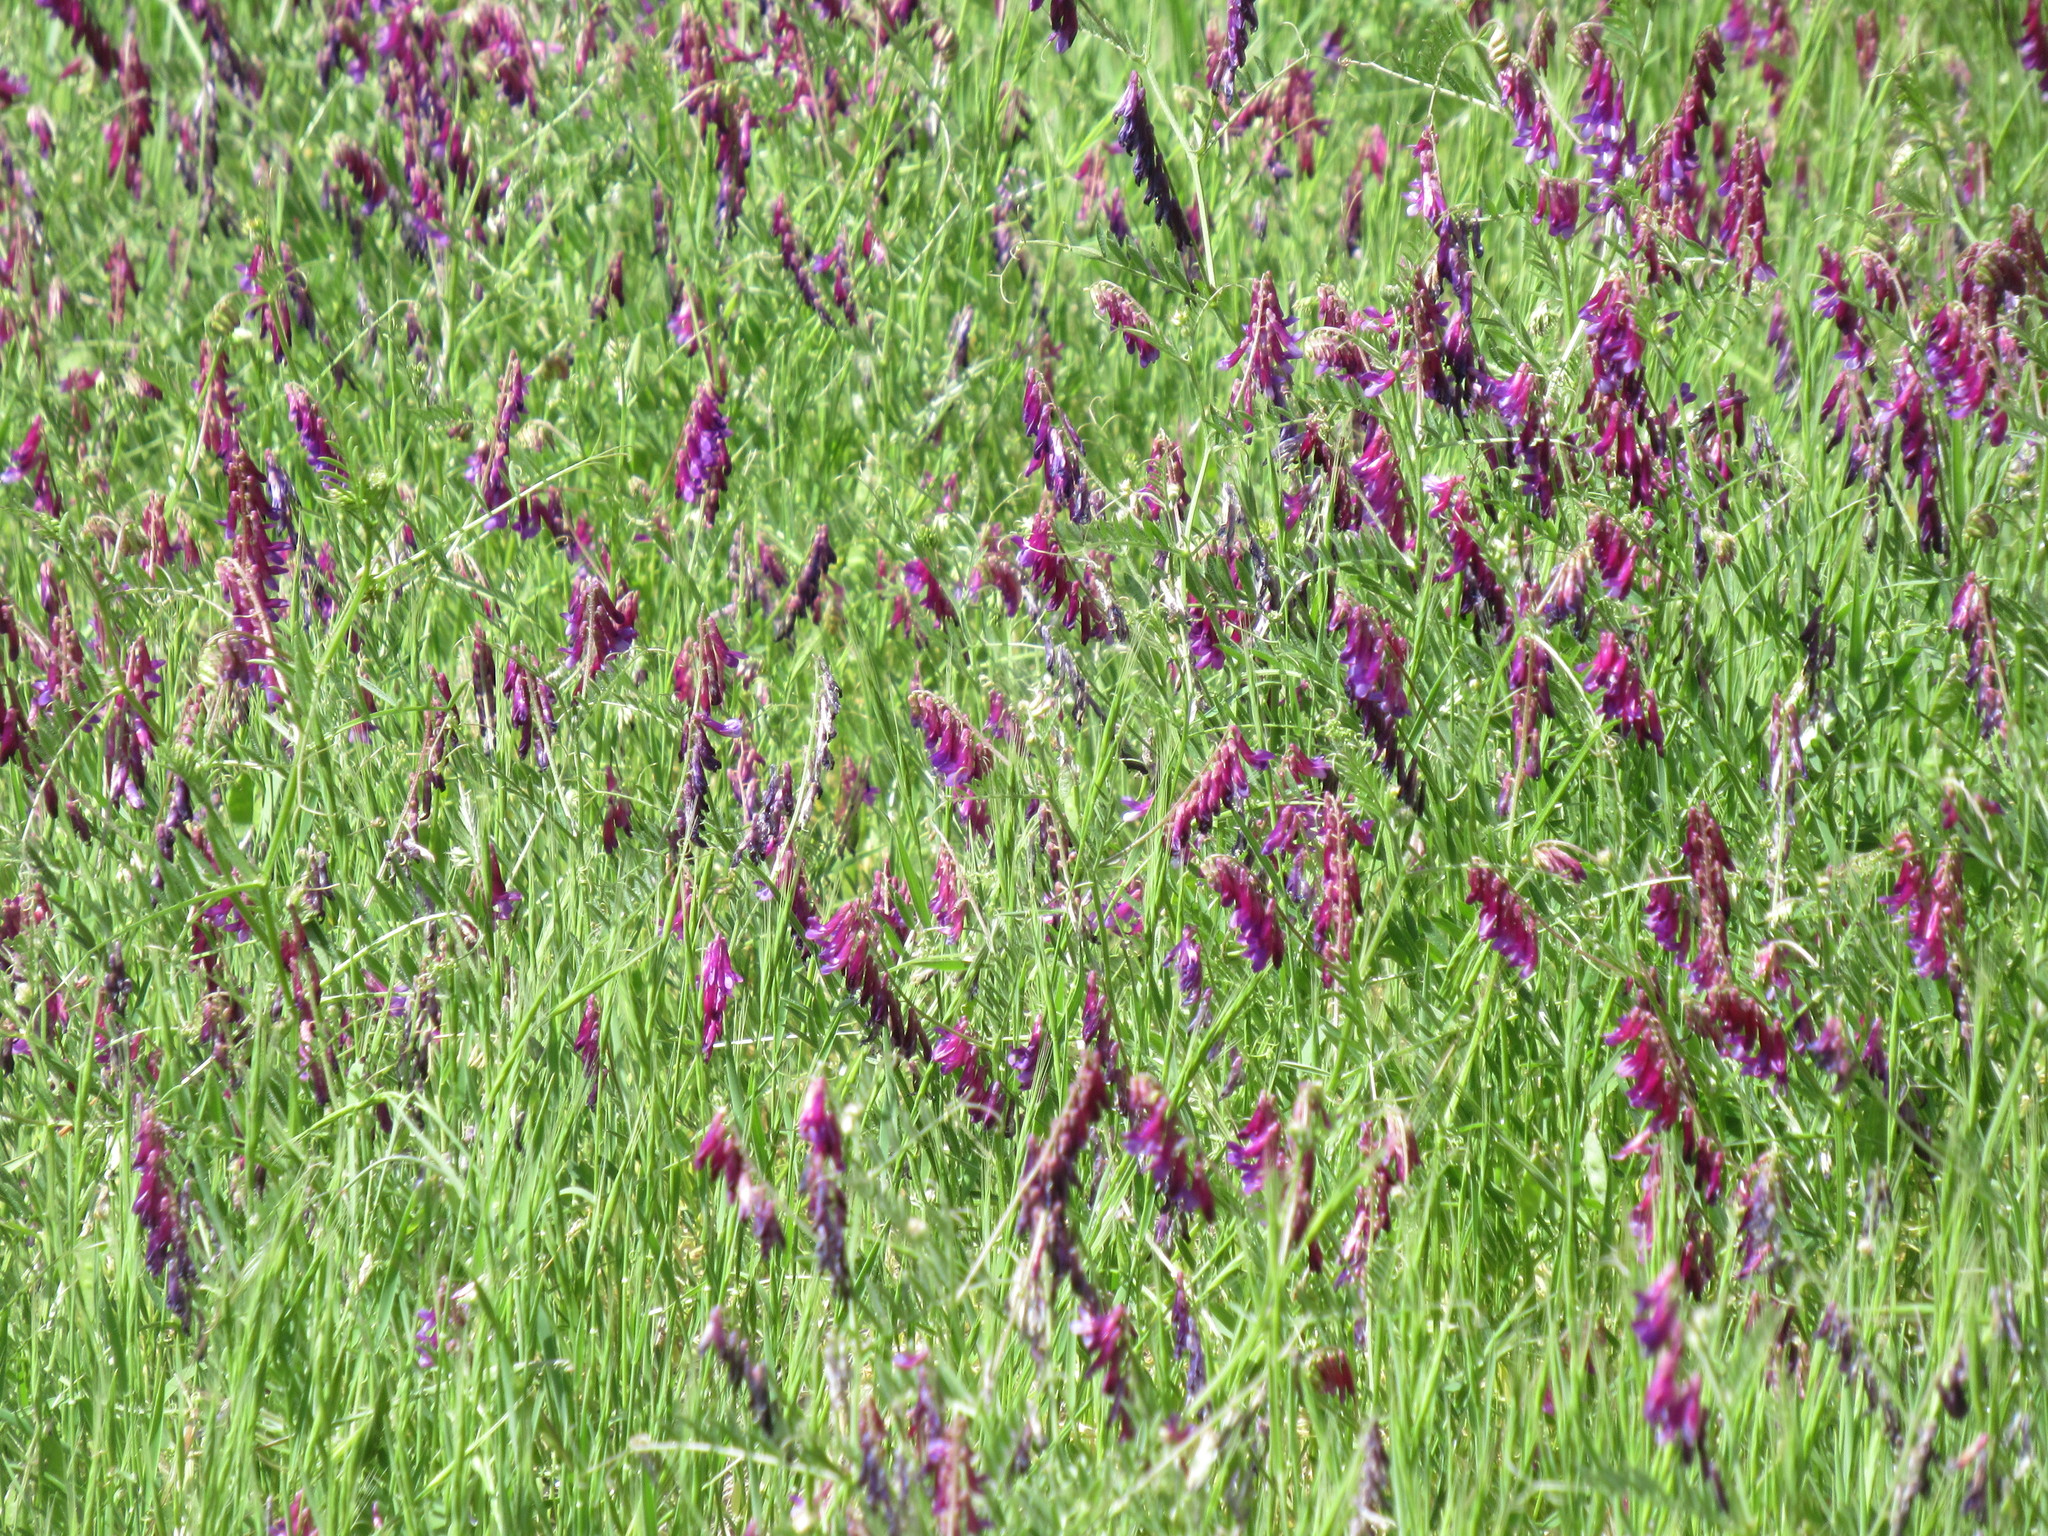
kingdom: Plantae
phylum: Tracheophyta
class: Magnoliopsida
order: Fabales
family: Fabaceae
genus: Vicia
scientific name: Vicia villosa
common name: Fodder vetch
